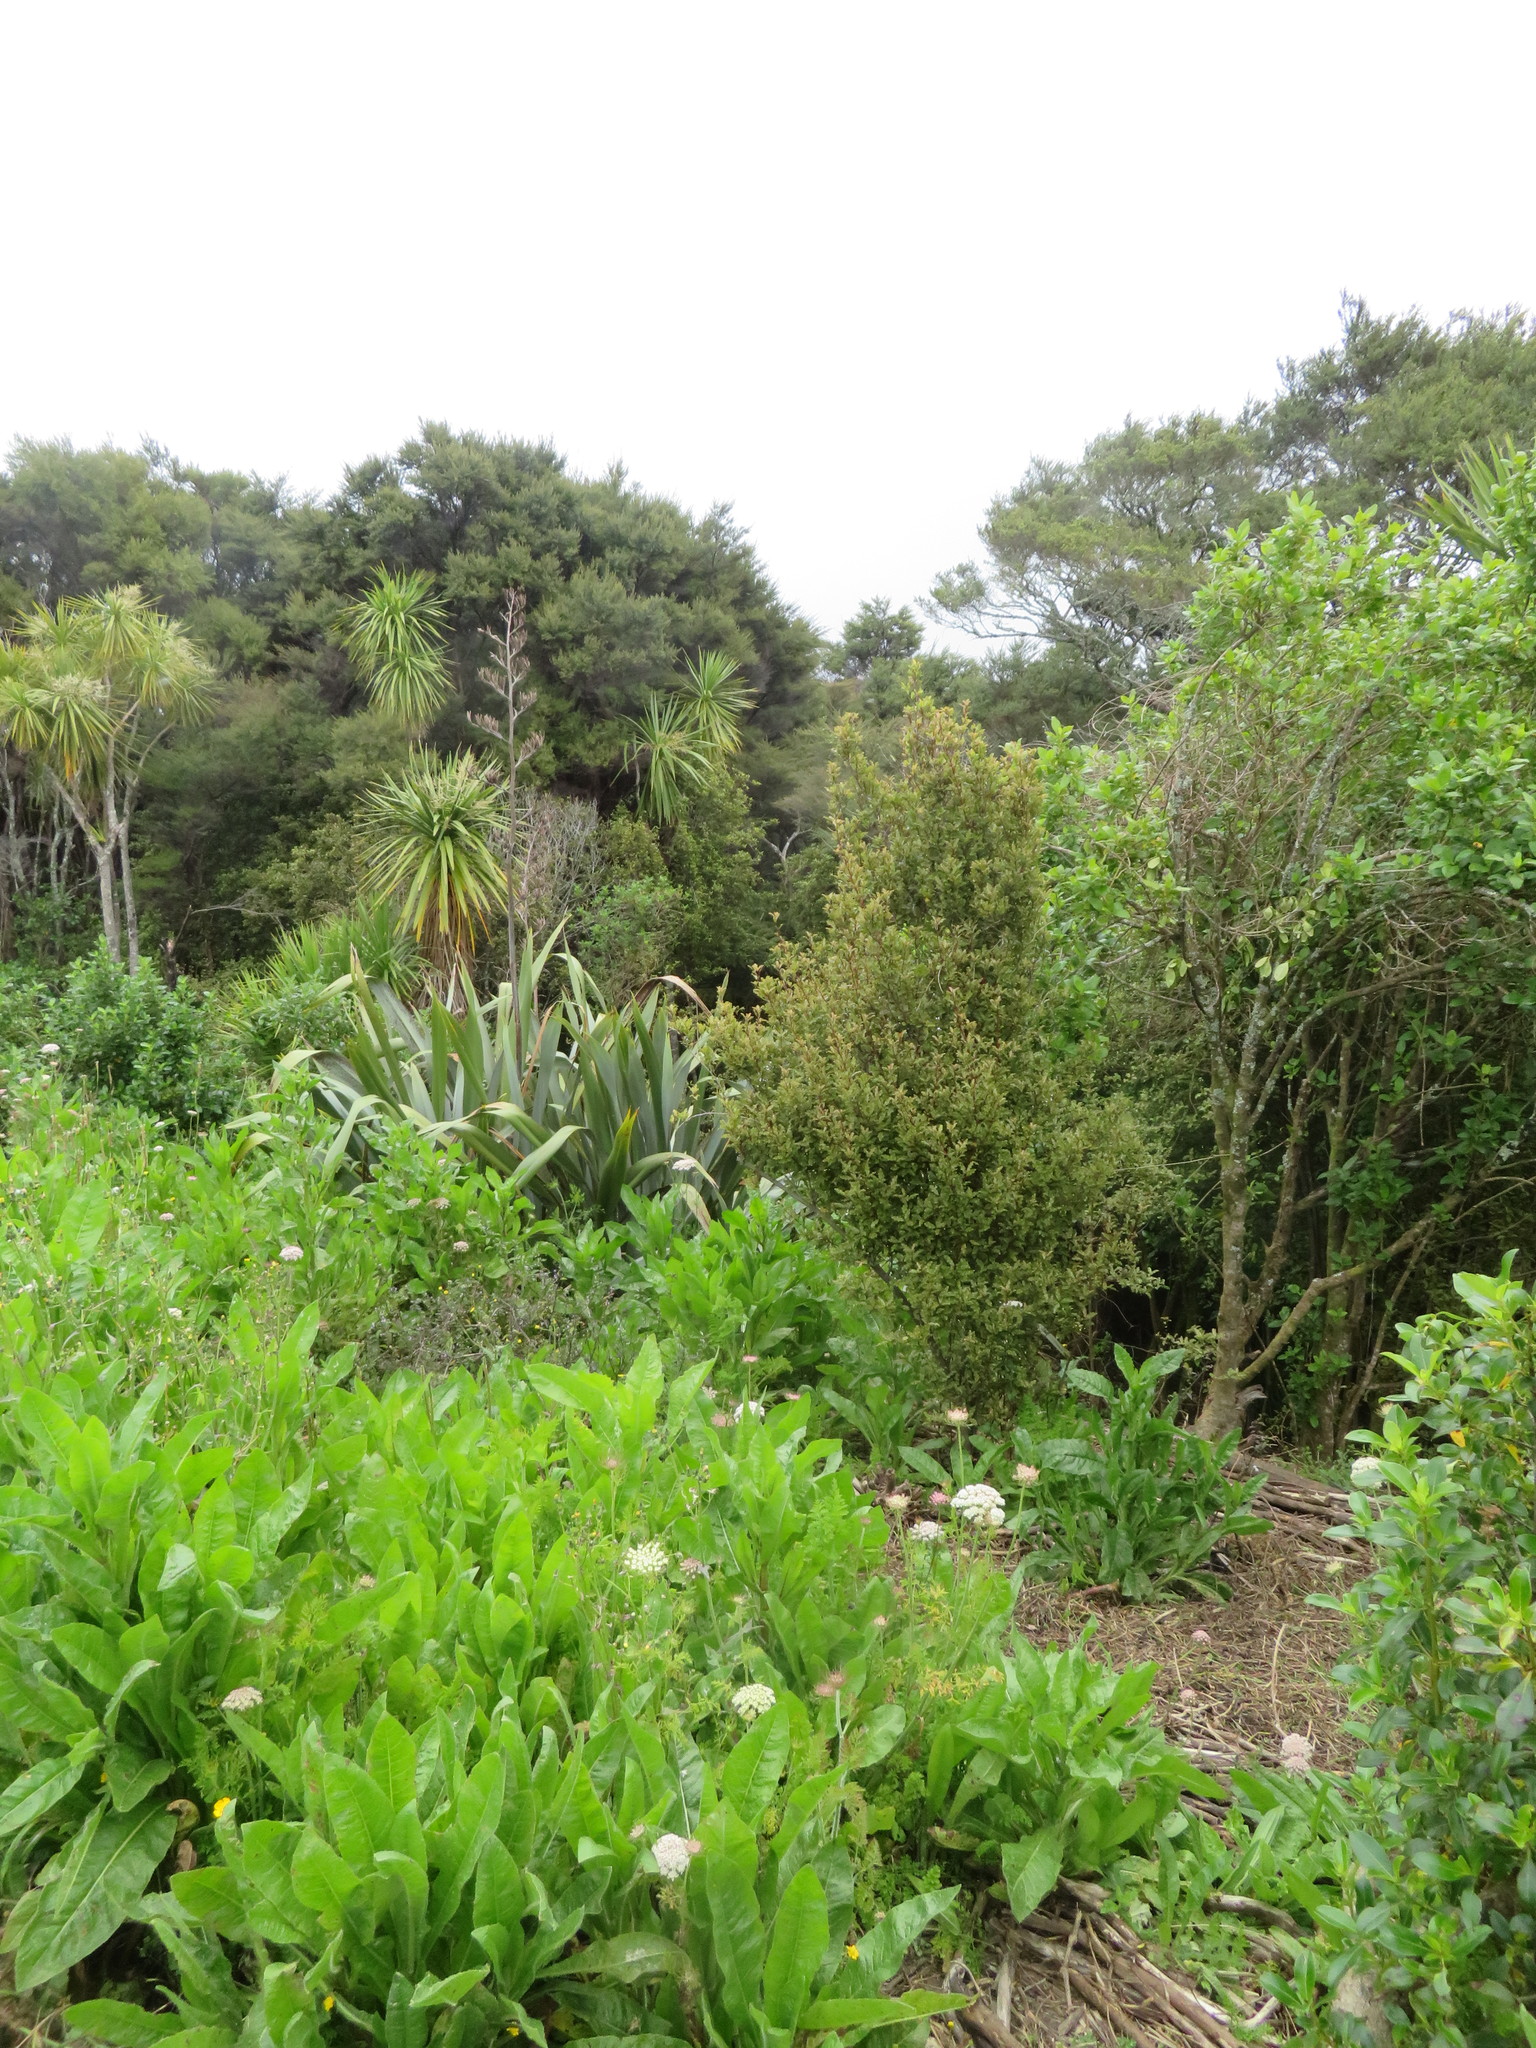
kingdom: Plantae
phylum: Tracheophyta
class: Magnoliopsida
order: Ericales
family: Primulaceae
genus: Myrsine
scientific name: Myrsine australis
